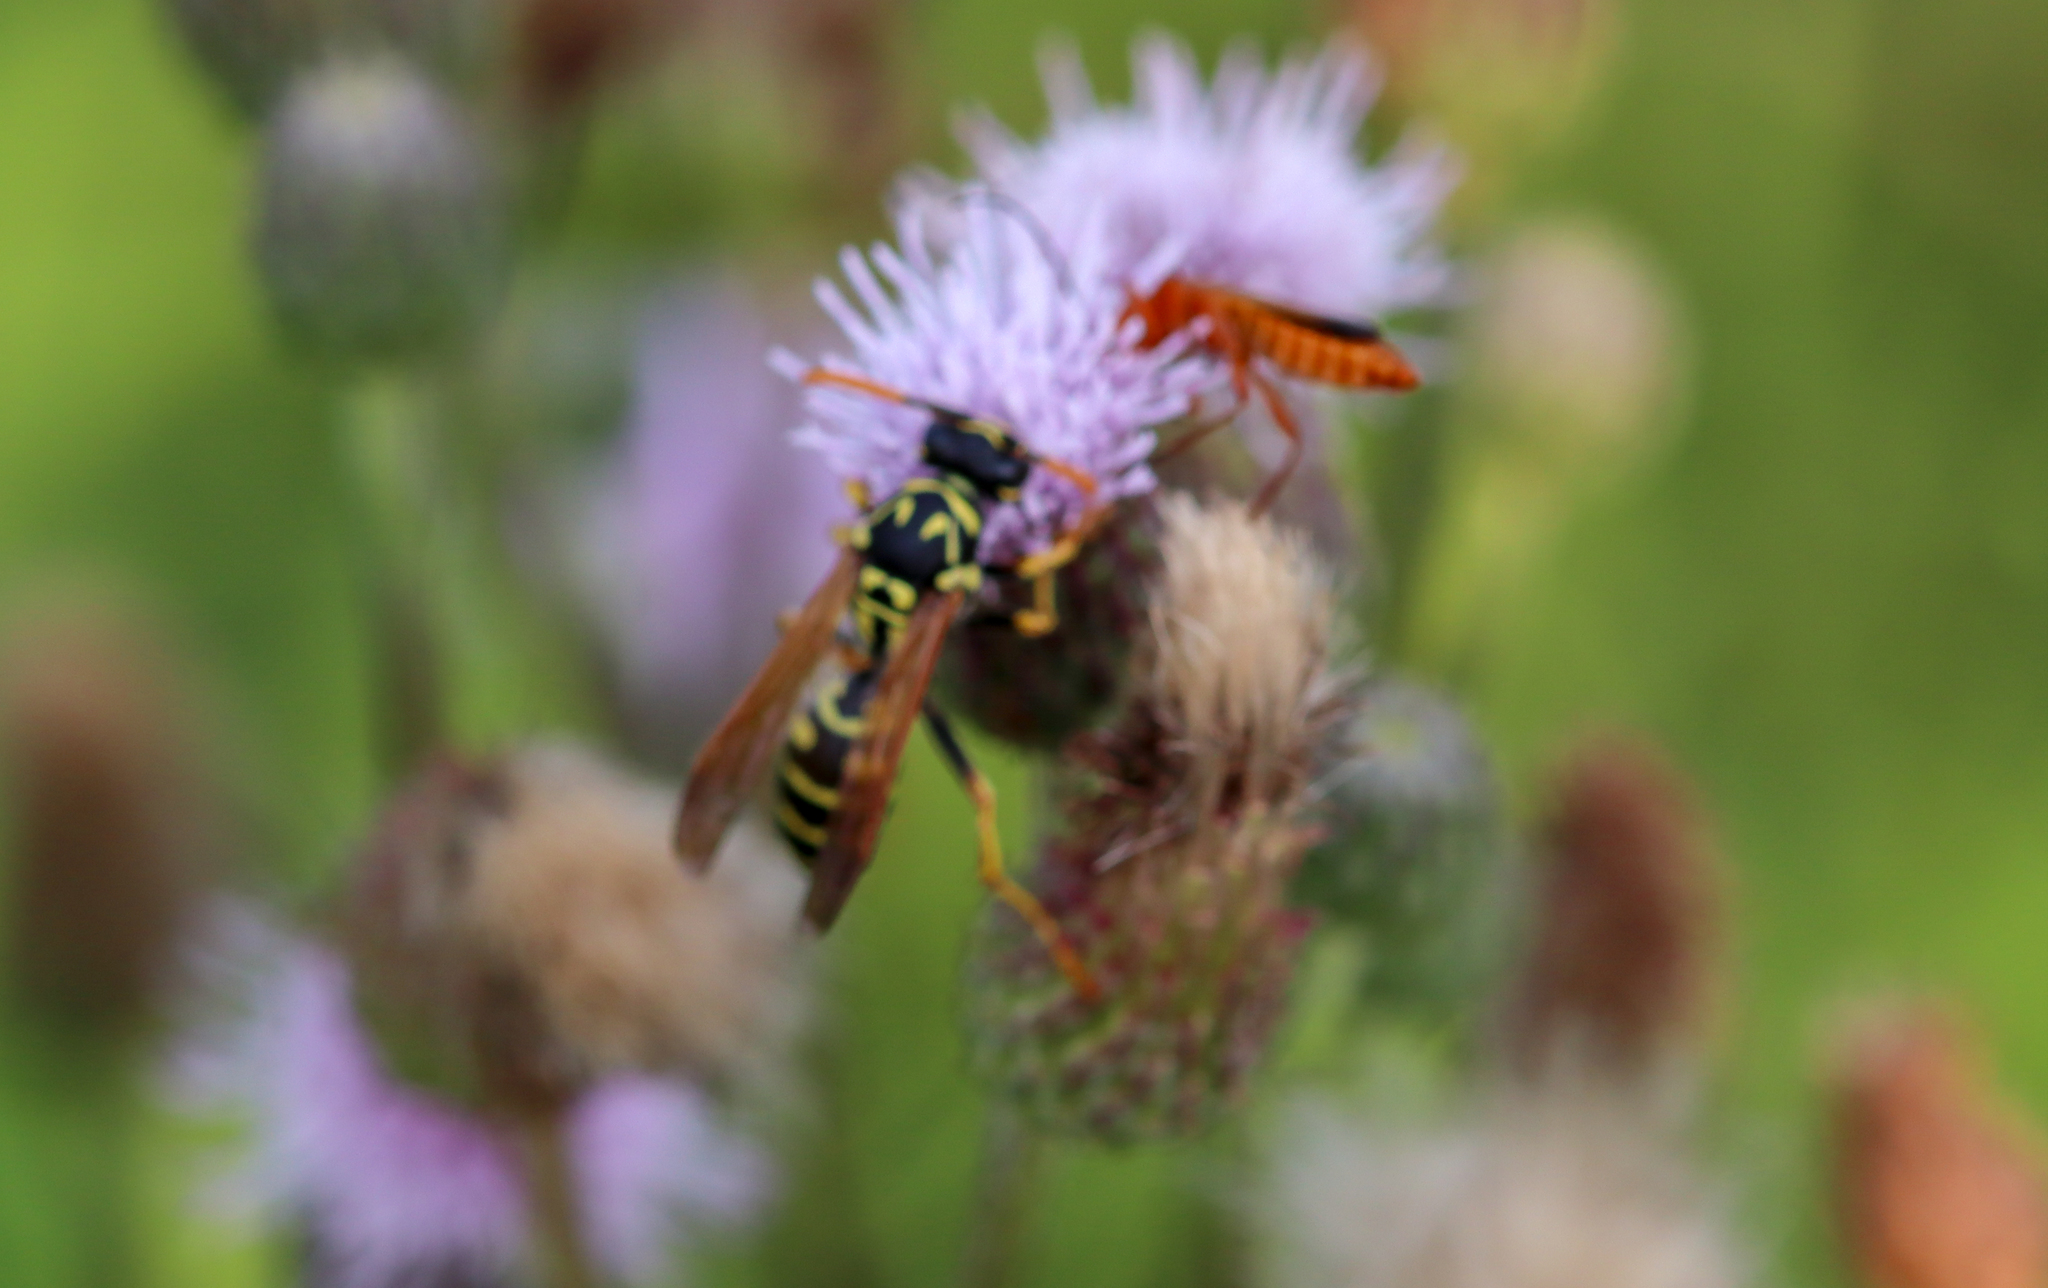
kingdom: Animalia
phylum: Arthropoda
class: Insecta
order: Hymenoptera
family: Eumenidae
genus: Polistes
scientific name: Polistes dominula
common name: Paper wasp
